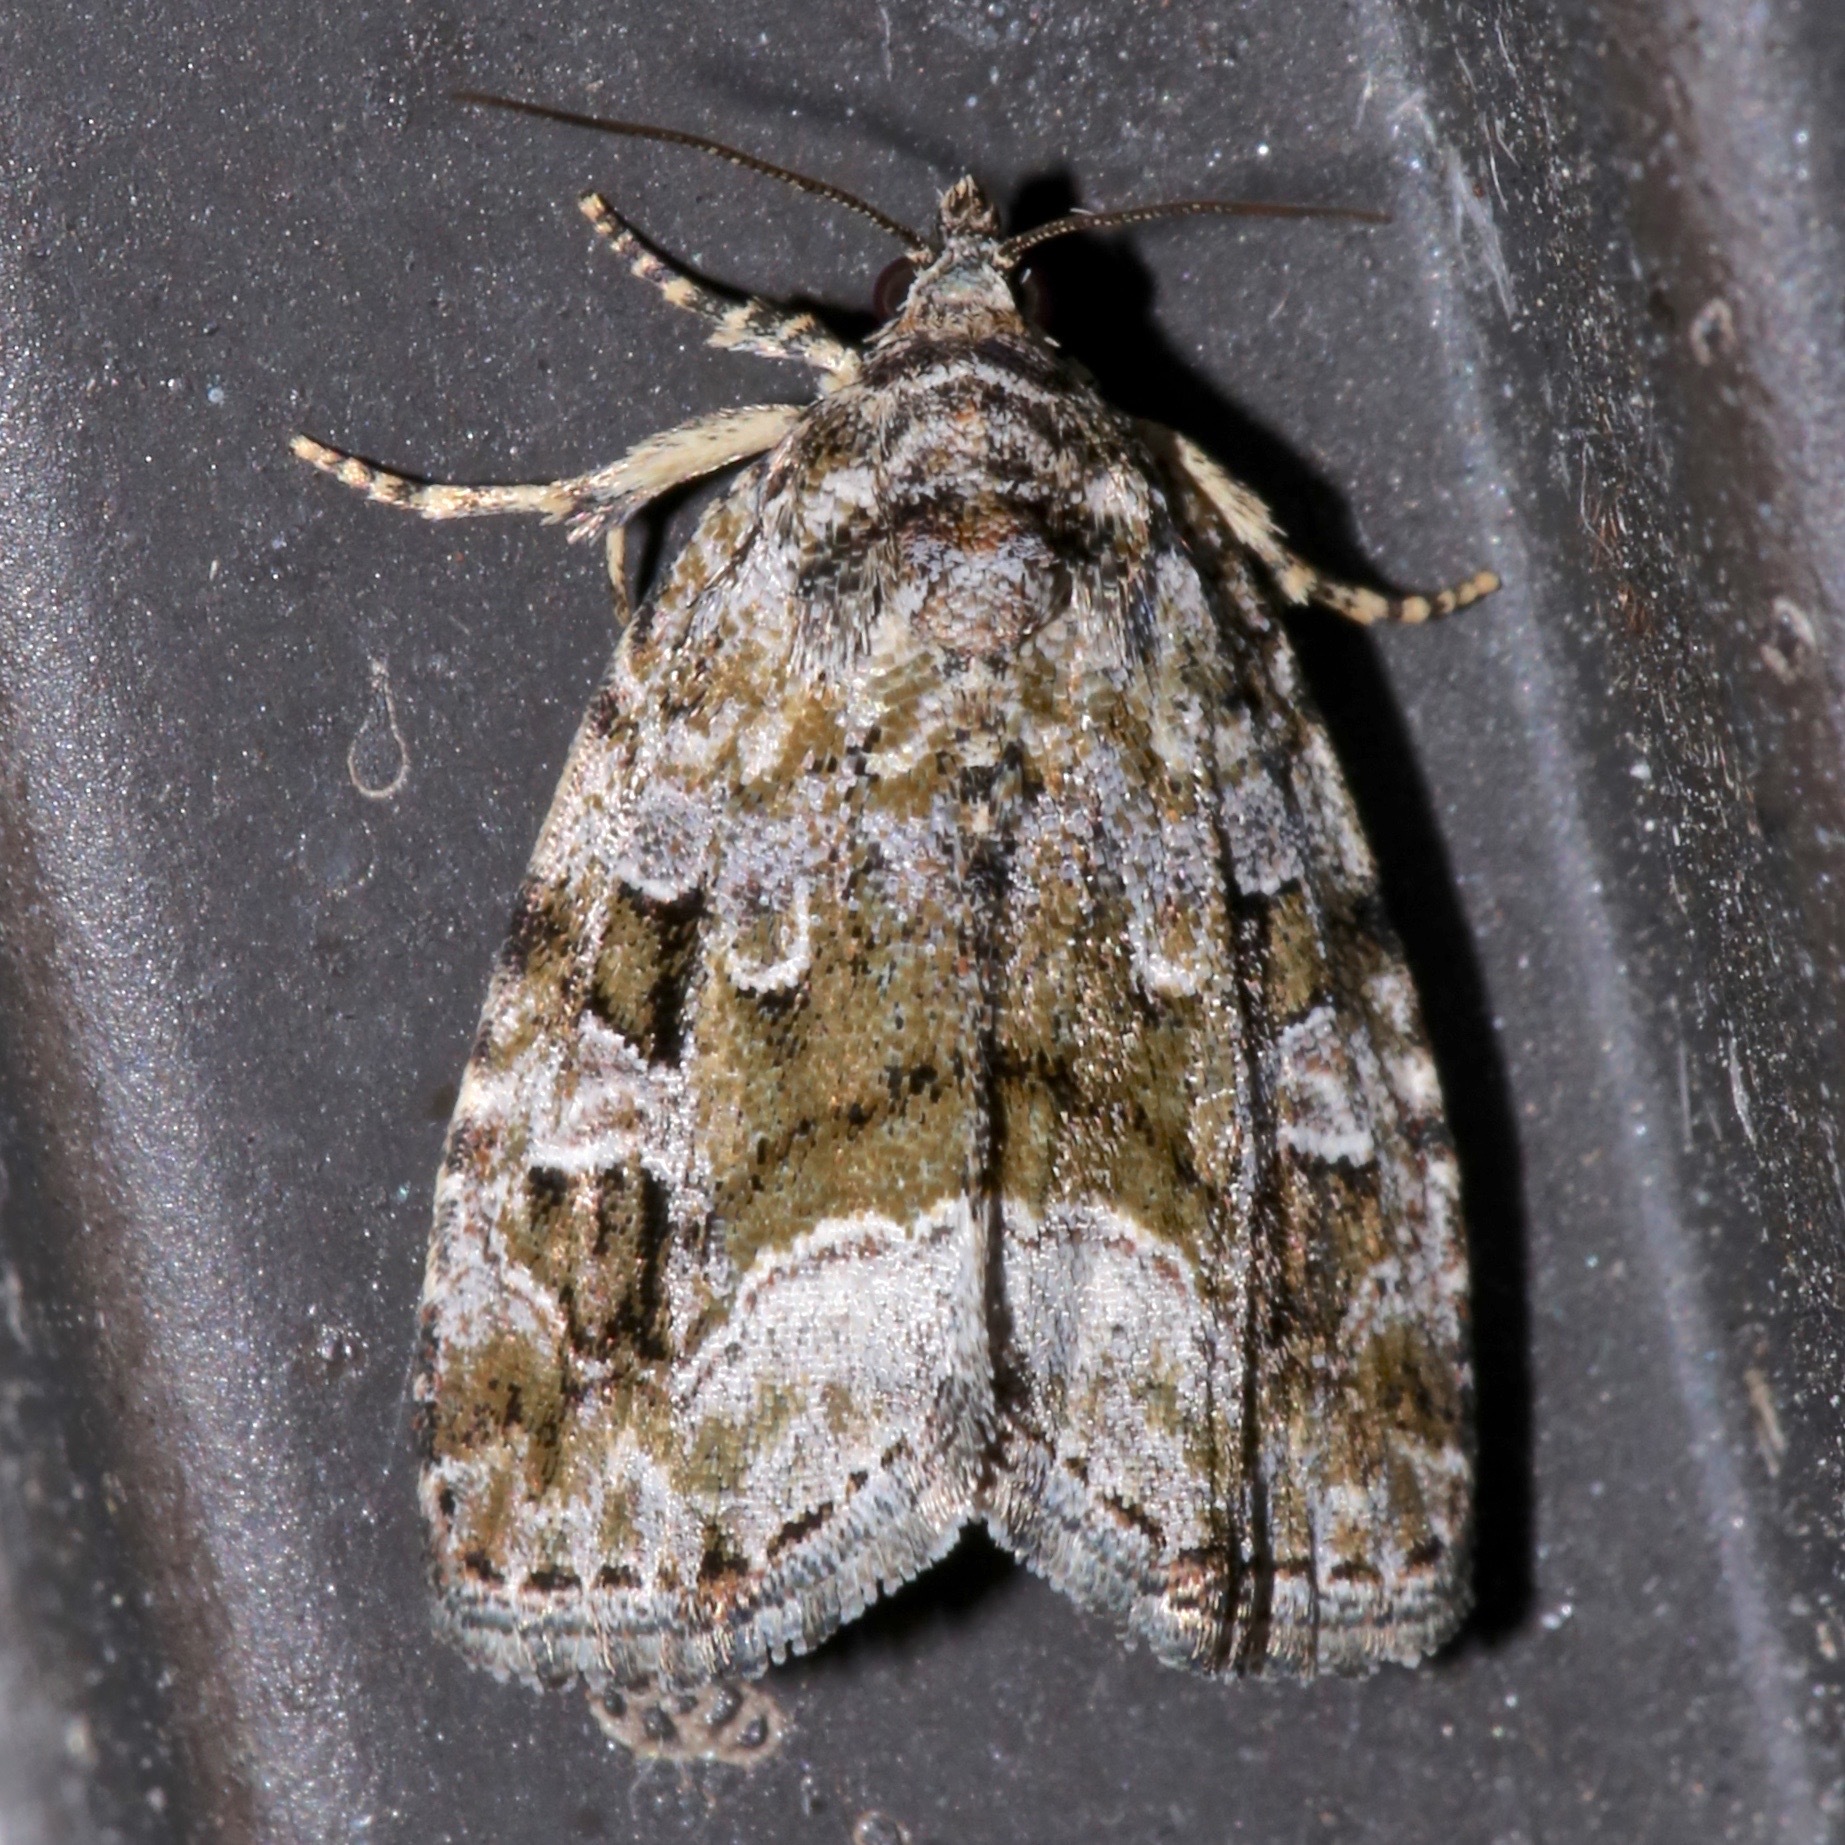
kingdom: Animalia
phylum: Arthropoda
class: Insecta
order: Lepidoptera
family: Noctuidae
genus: Protodeltote
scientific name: Protodeltote muscosula
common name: Large mossy glyph
